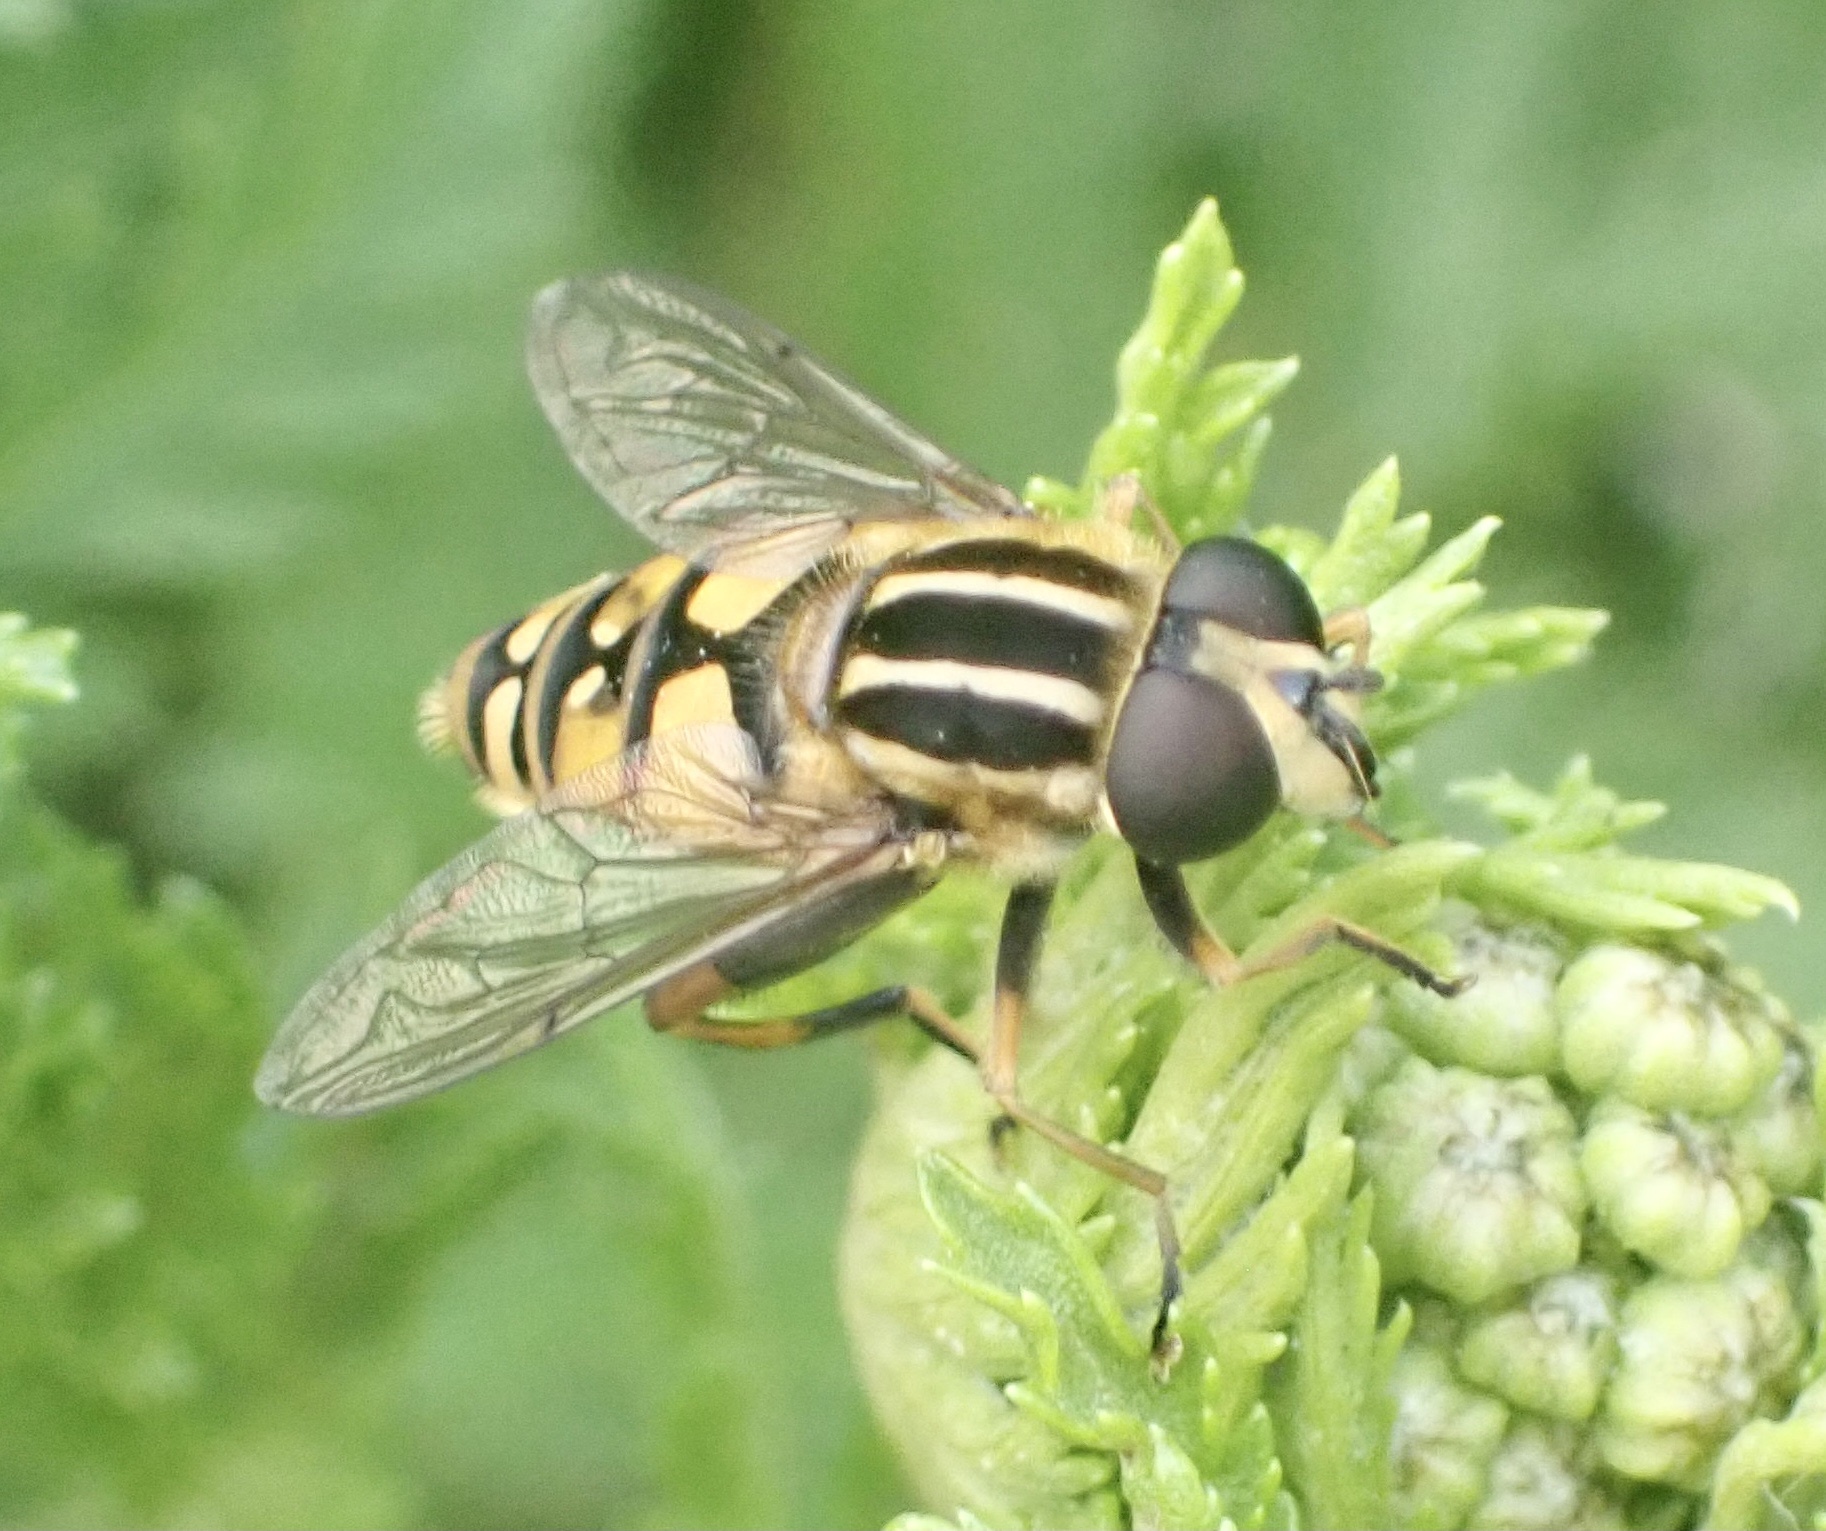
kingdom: Animalia
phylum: Arthropoda
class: Insecta
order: Diptera
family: Syrphidae
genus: Helophilus
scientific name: Helophilus pendulus
